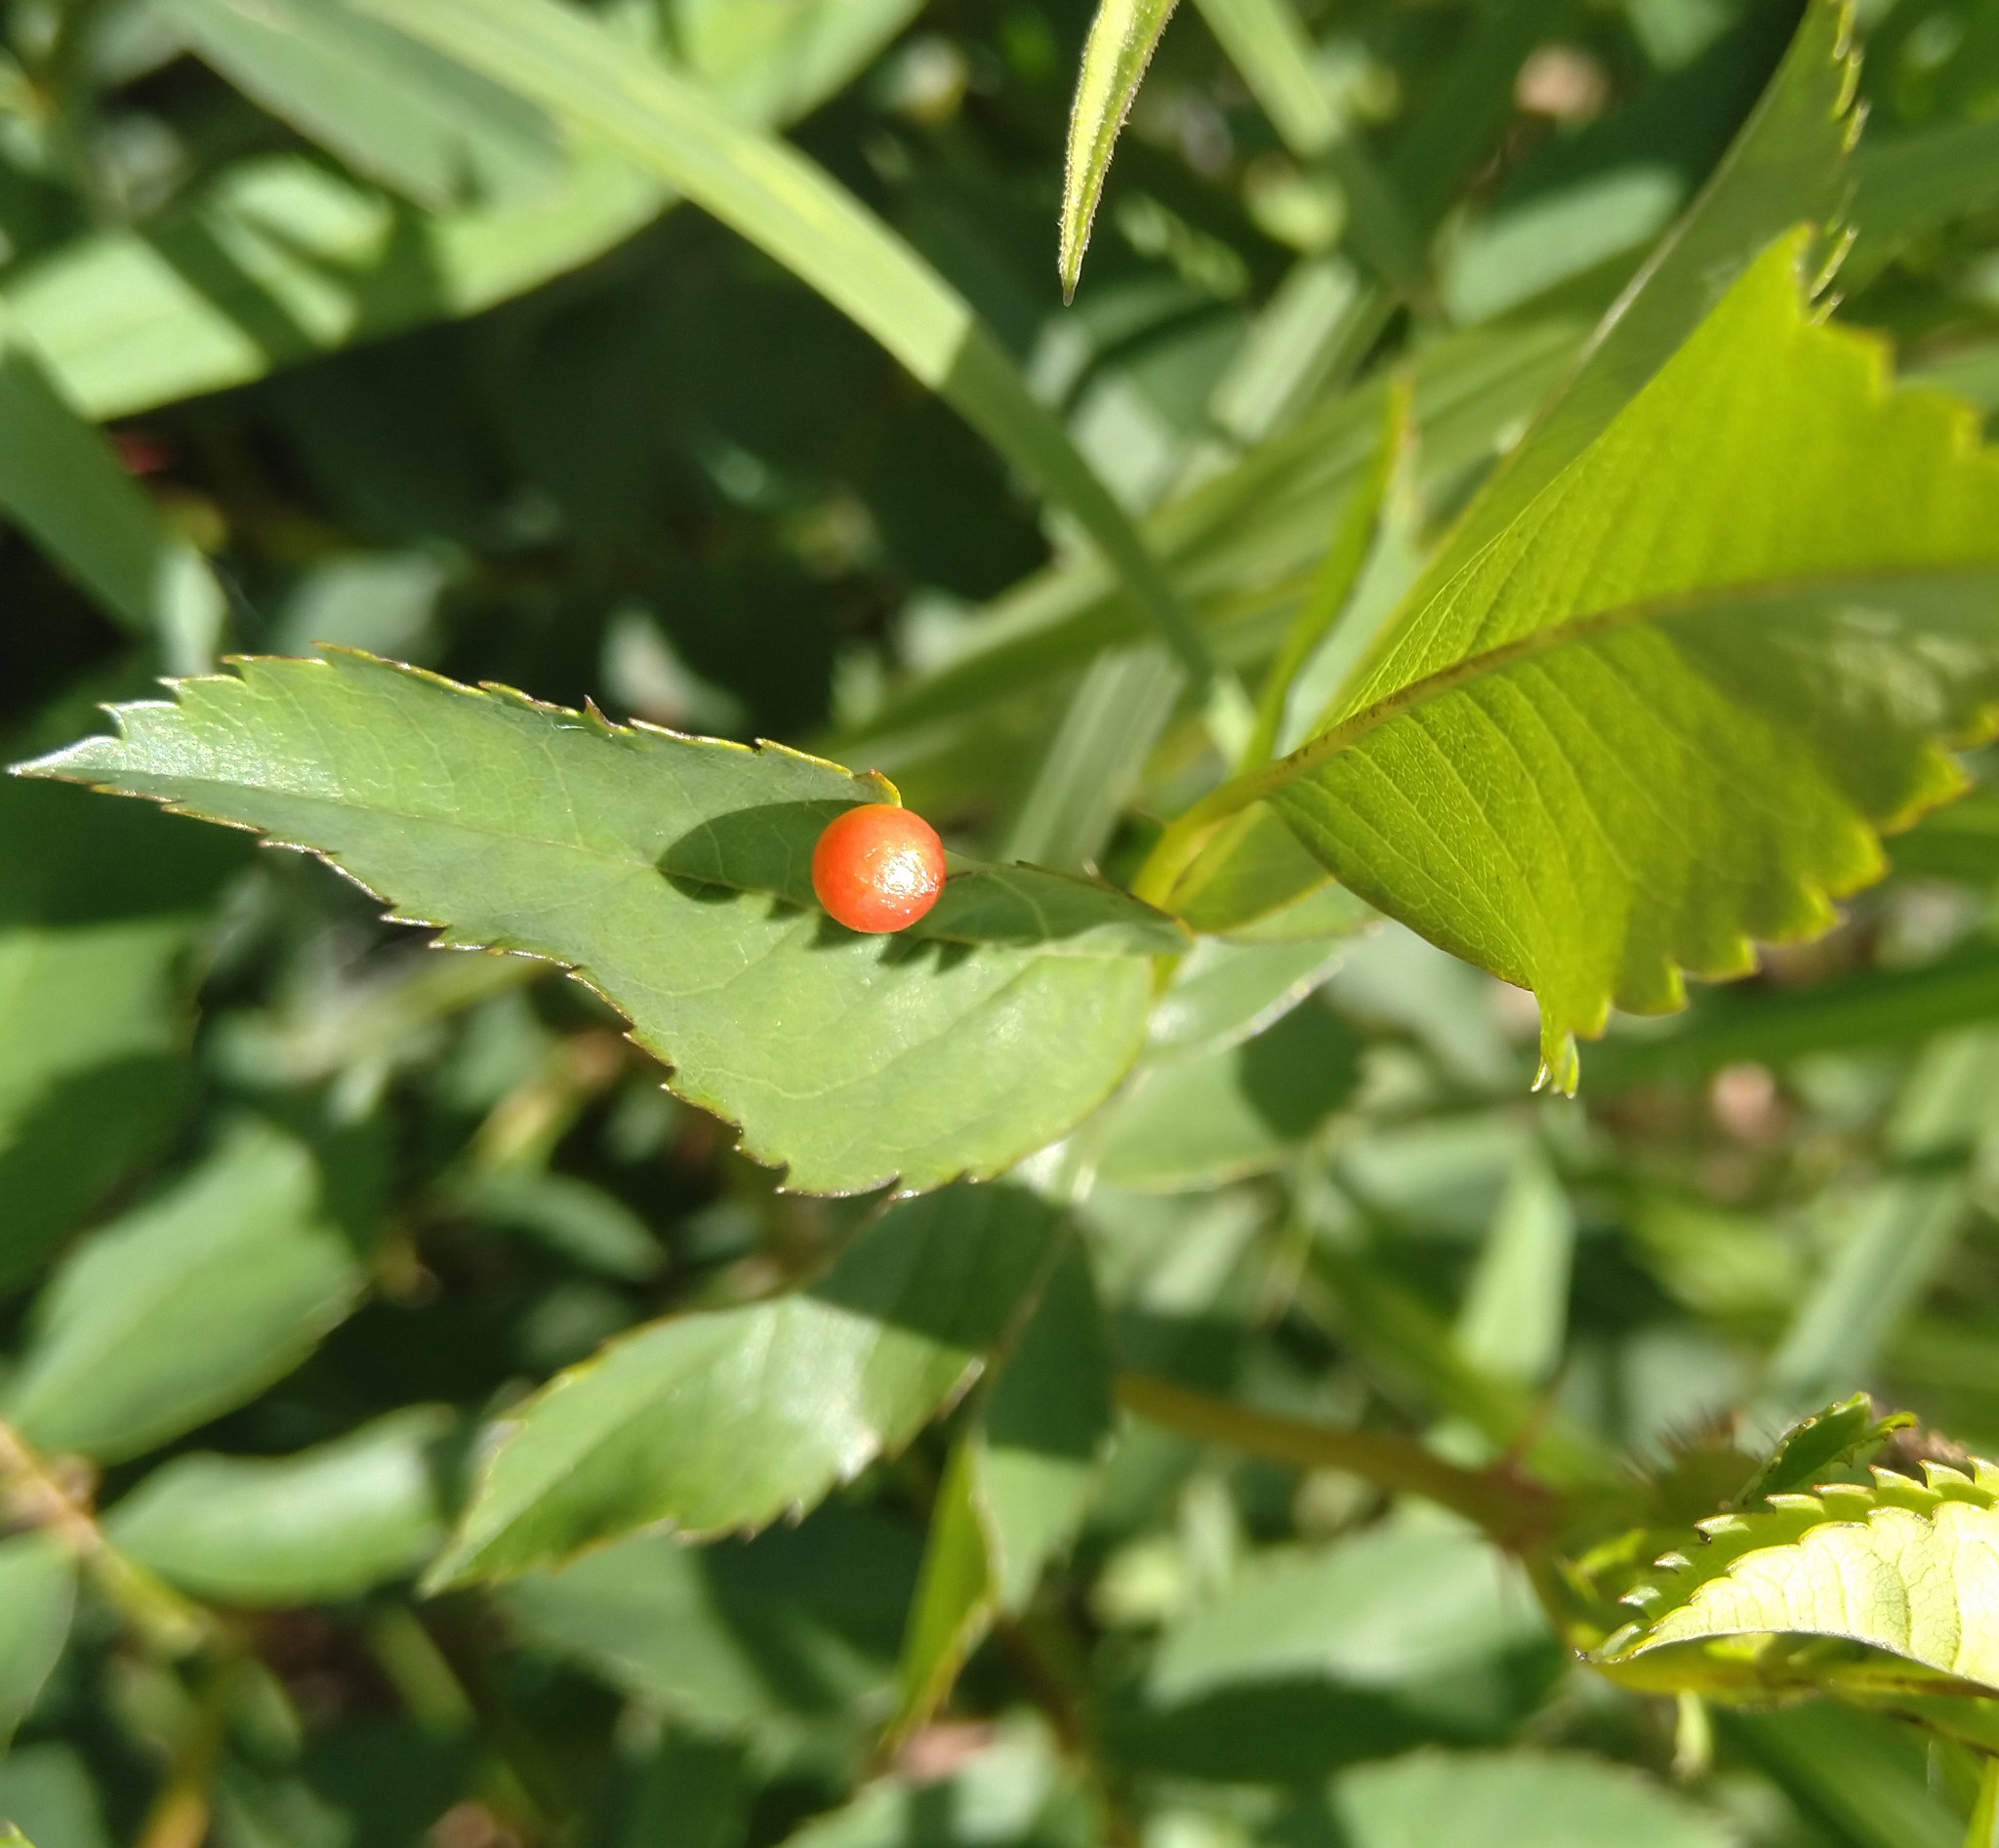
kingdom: Animalia
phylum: Arthropoda
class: Insecta
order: Hymenoptera
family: Cynipidae
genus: Diplolepis
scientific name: Diplolepis nervosa
